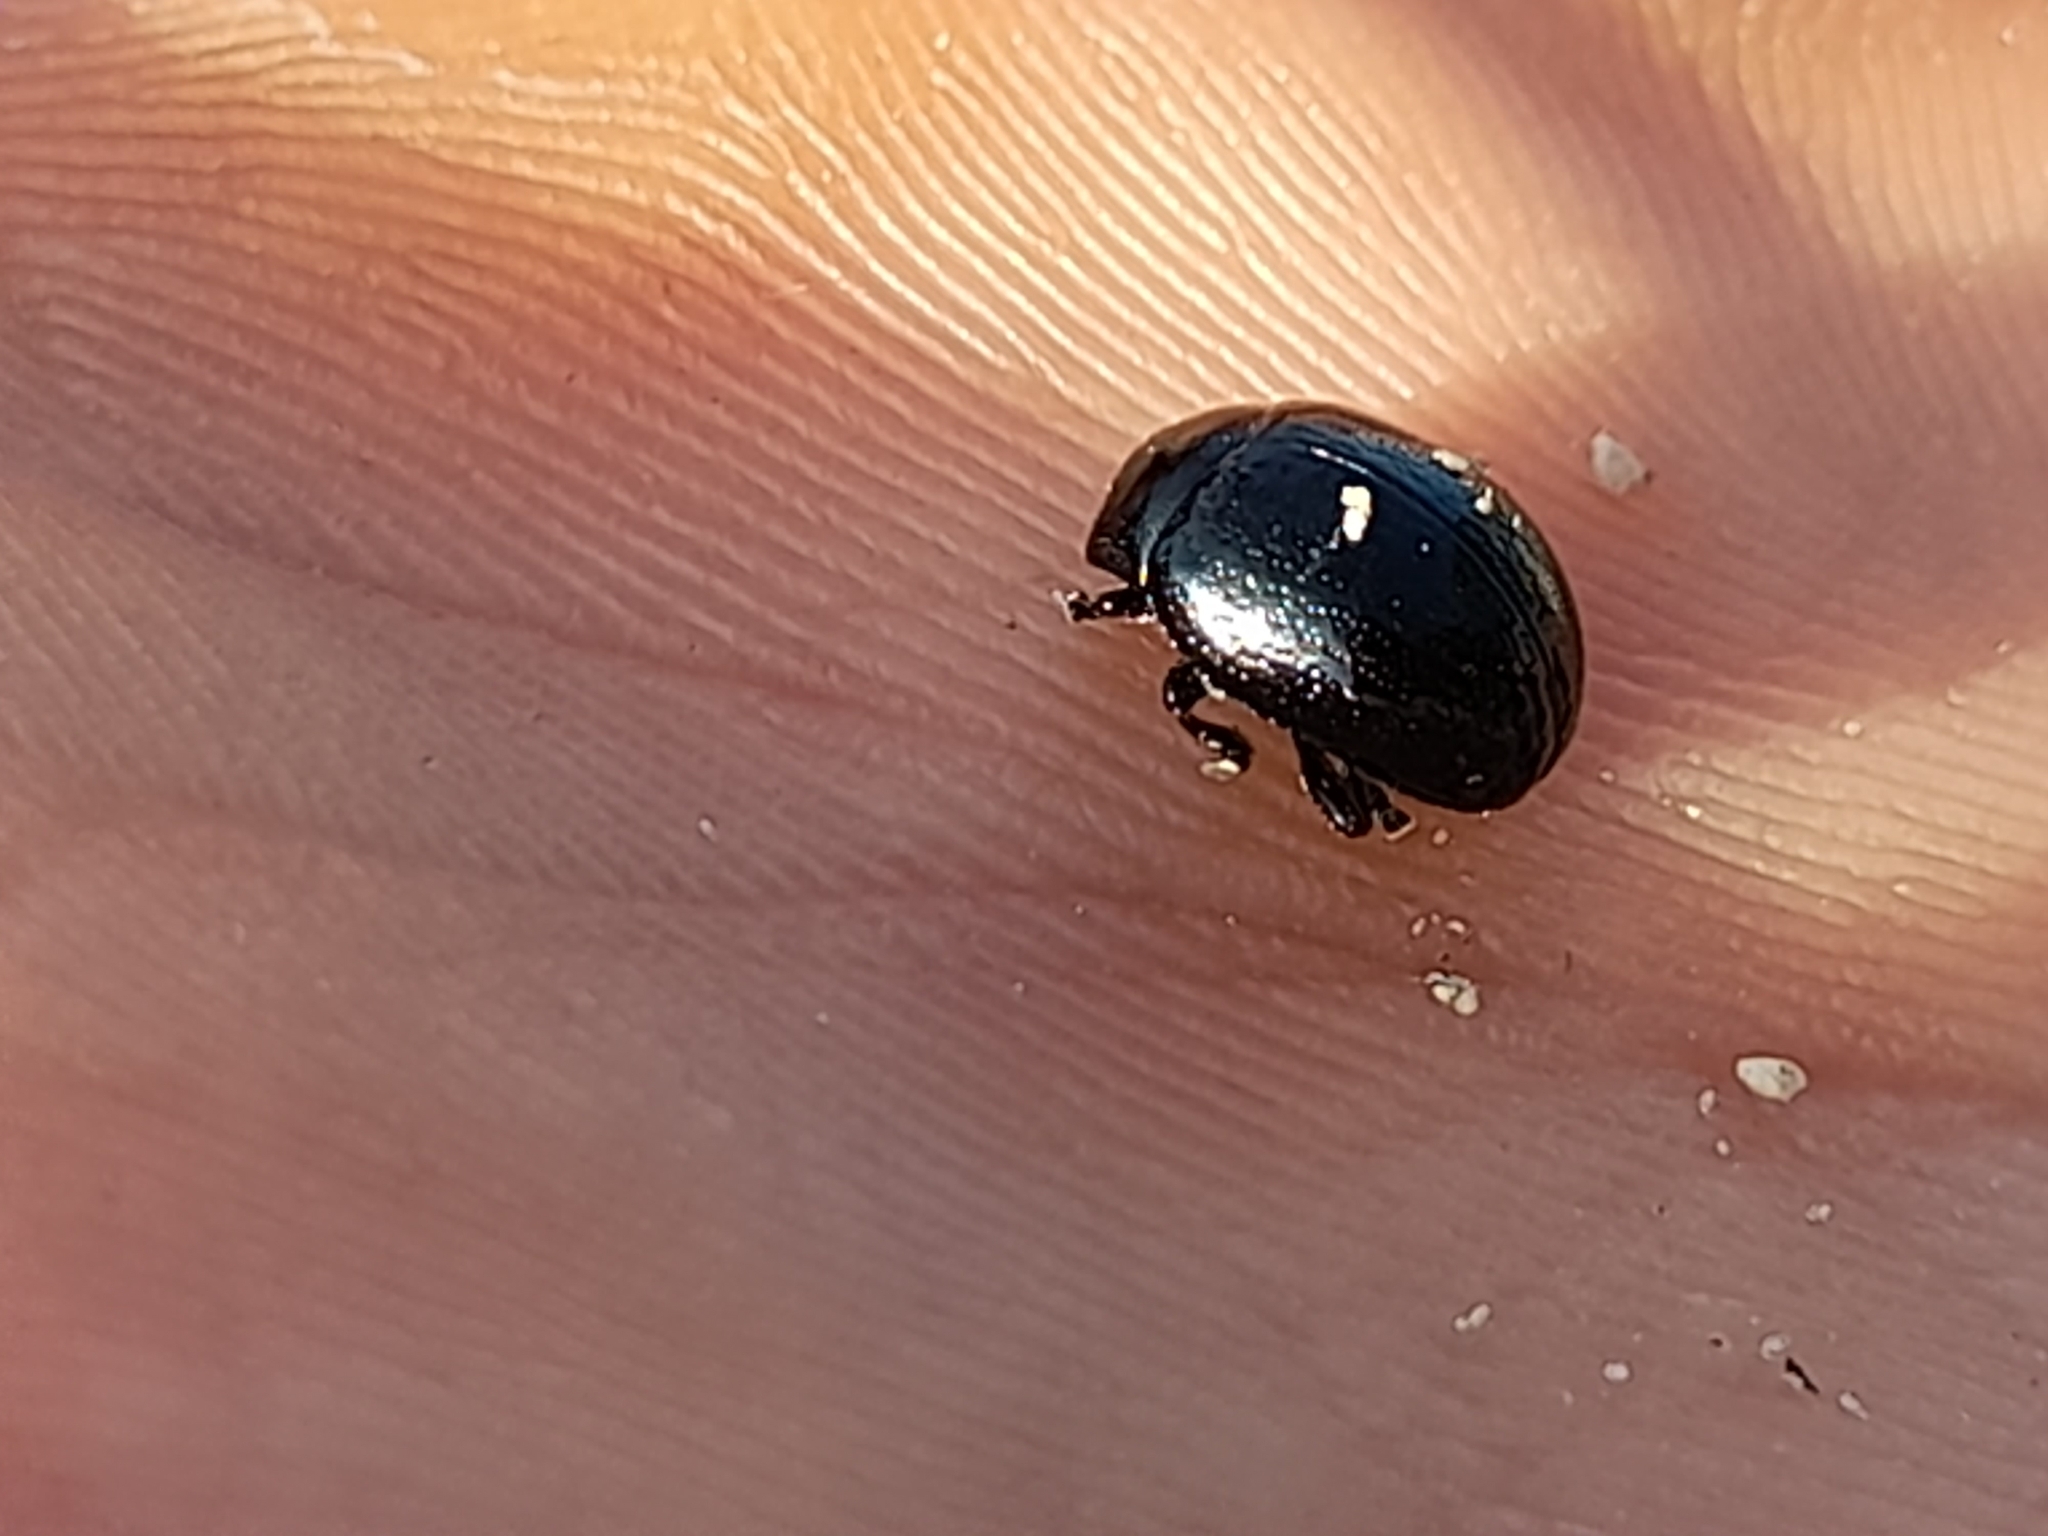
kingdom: Animalia
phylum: Arthropoda
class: Insecta
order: Coleoptera
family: Chrysomelidae
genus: Chrysolina
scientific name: Chrysolina haemoptera
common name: Plantain leaf beetle
